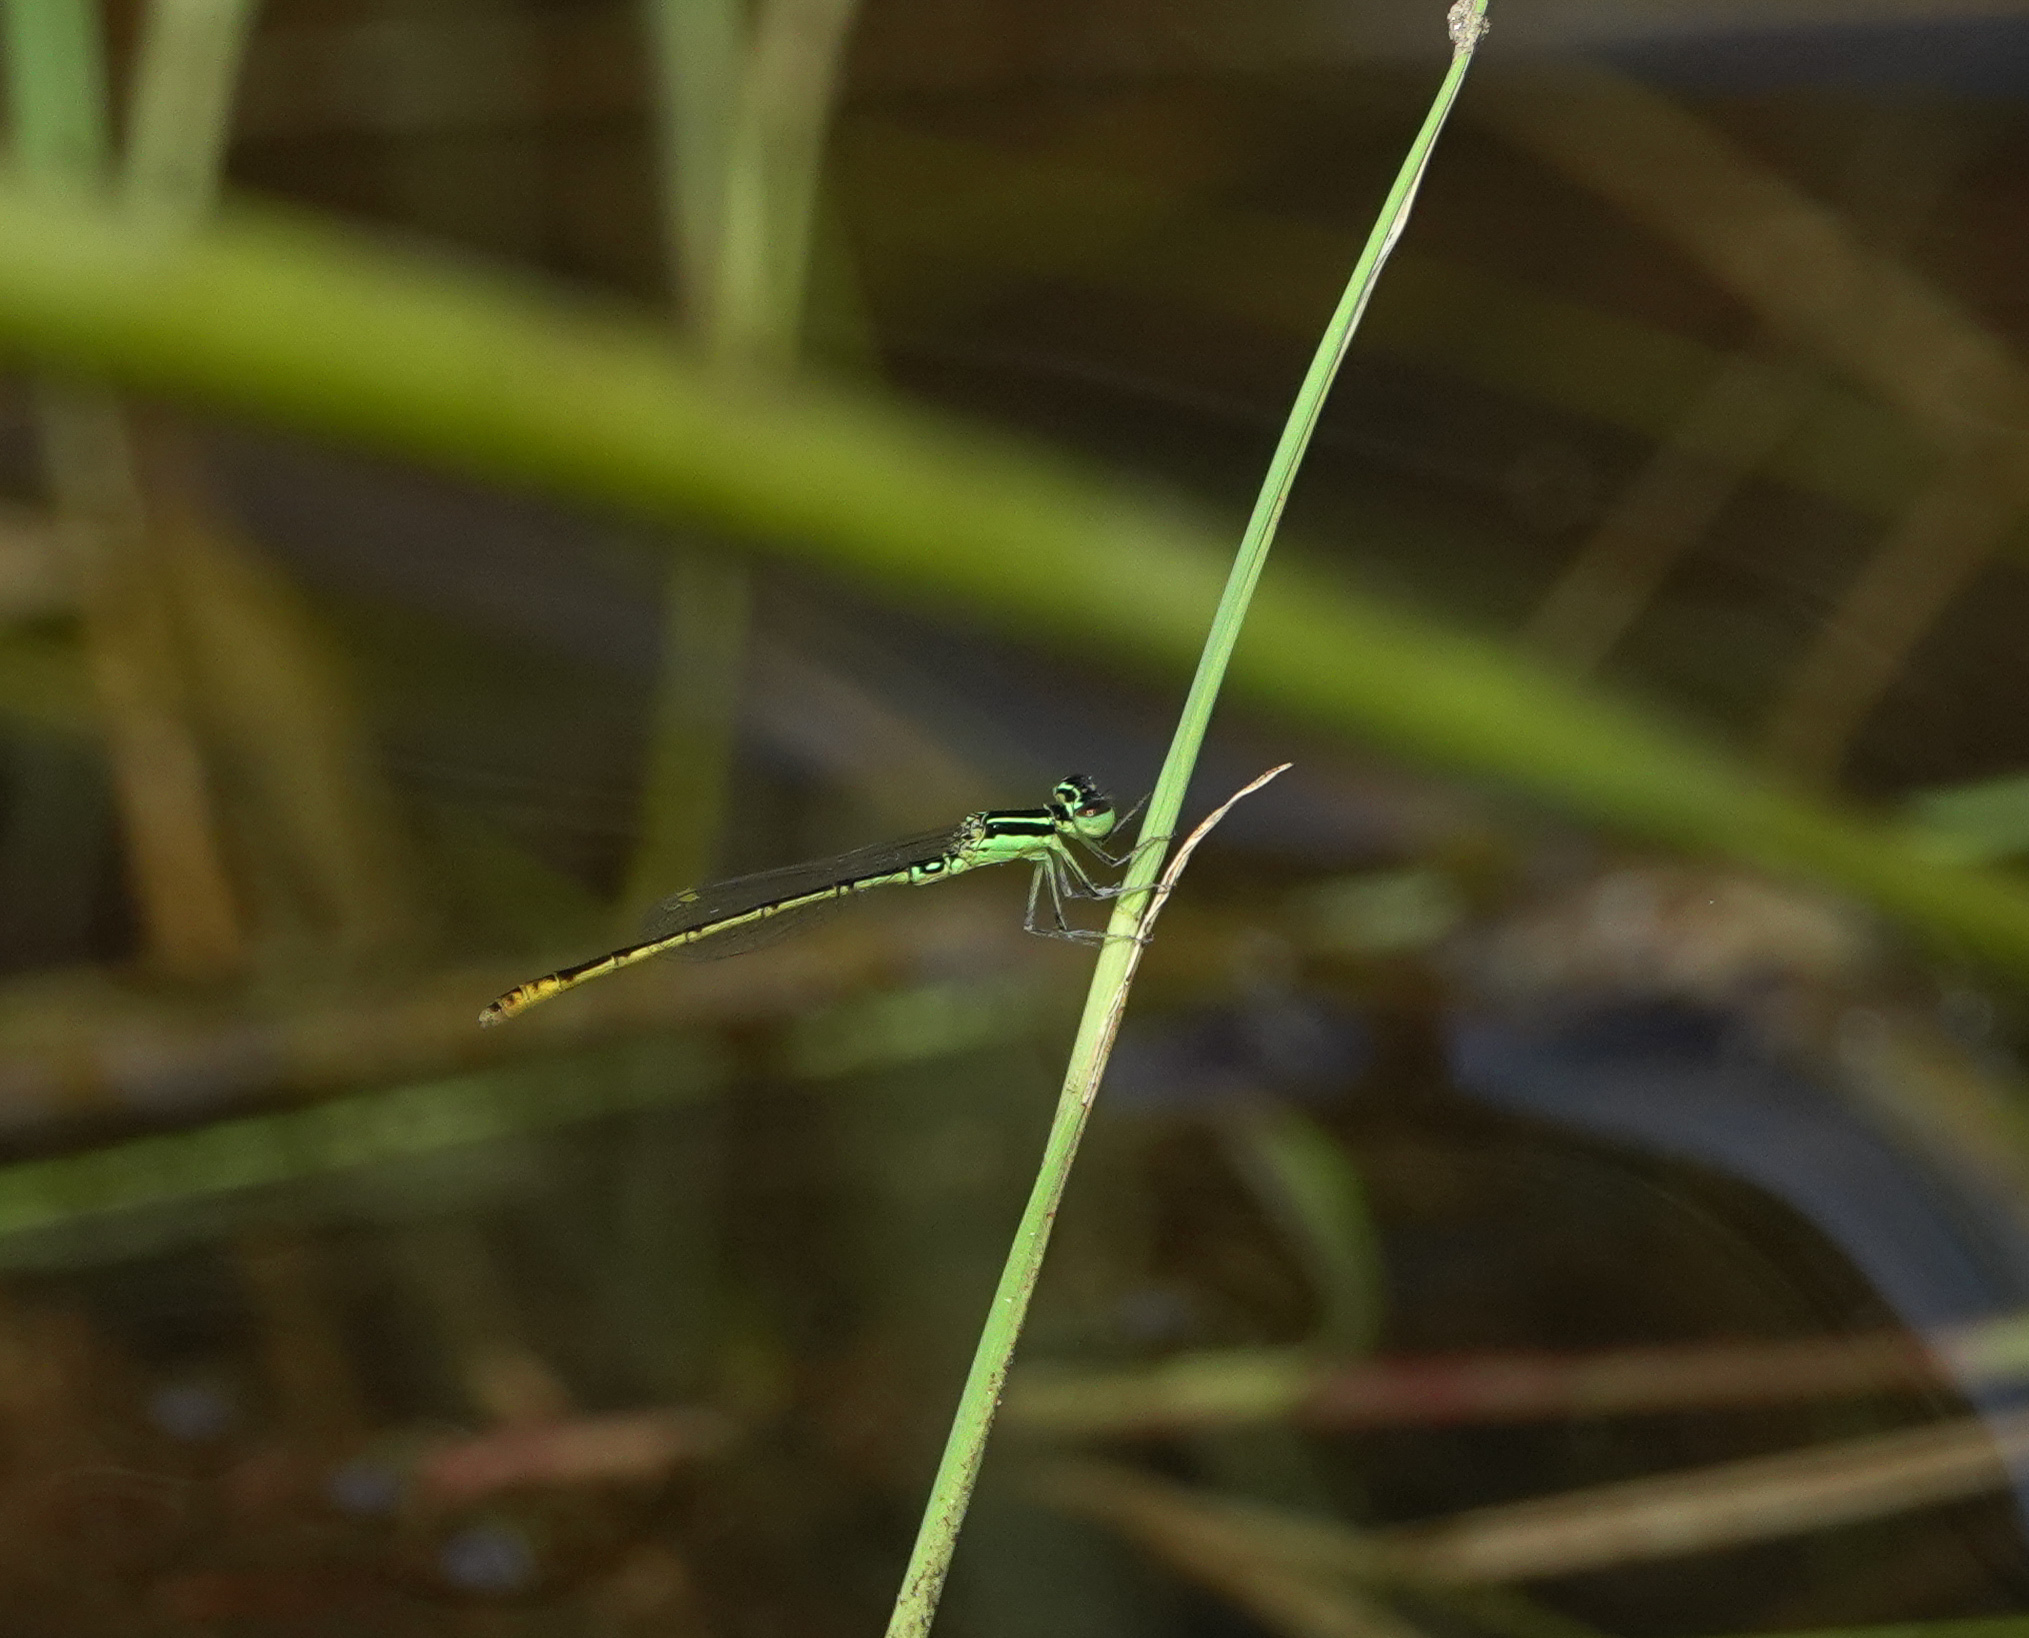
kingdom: Animalia
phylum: Arthropoda
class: Insecta
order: Odonata
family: Coenagrionidae
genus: Agriocnemis
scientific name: Agriocnemis pygmaea
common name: Pygmy wisp
